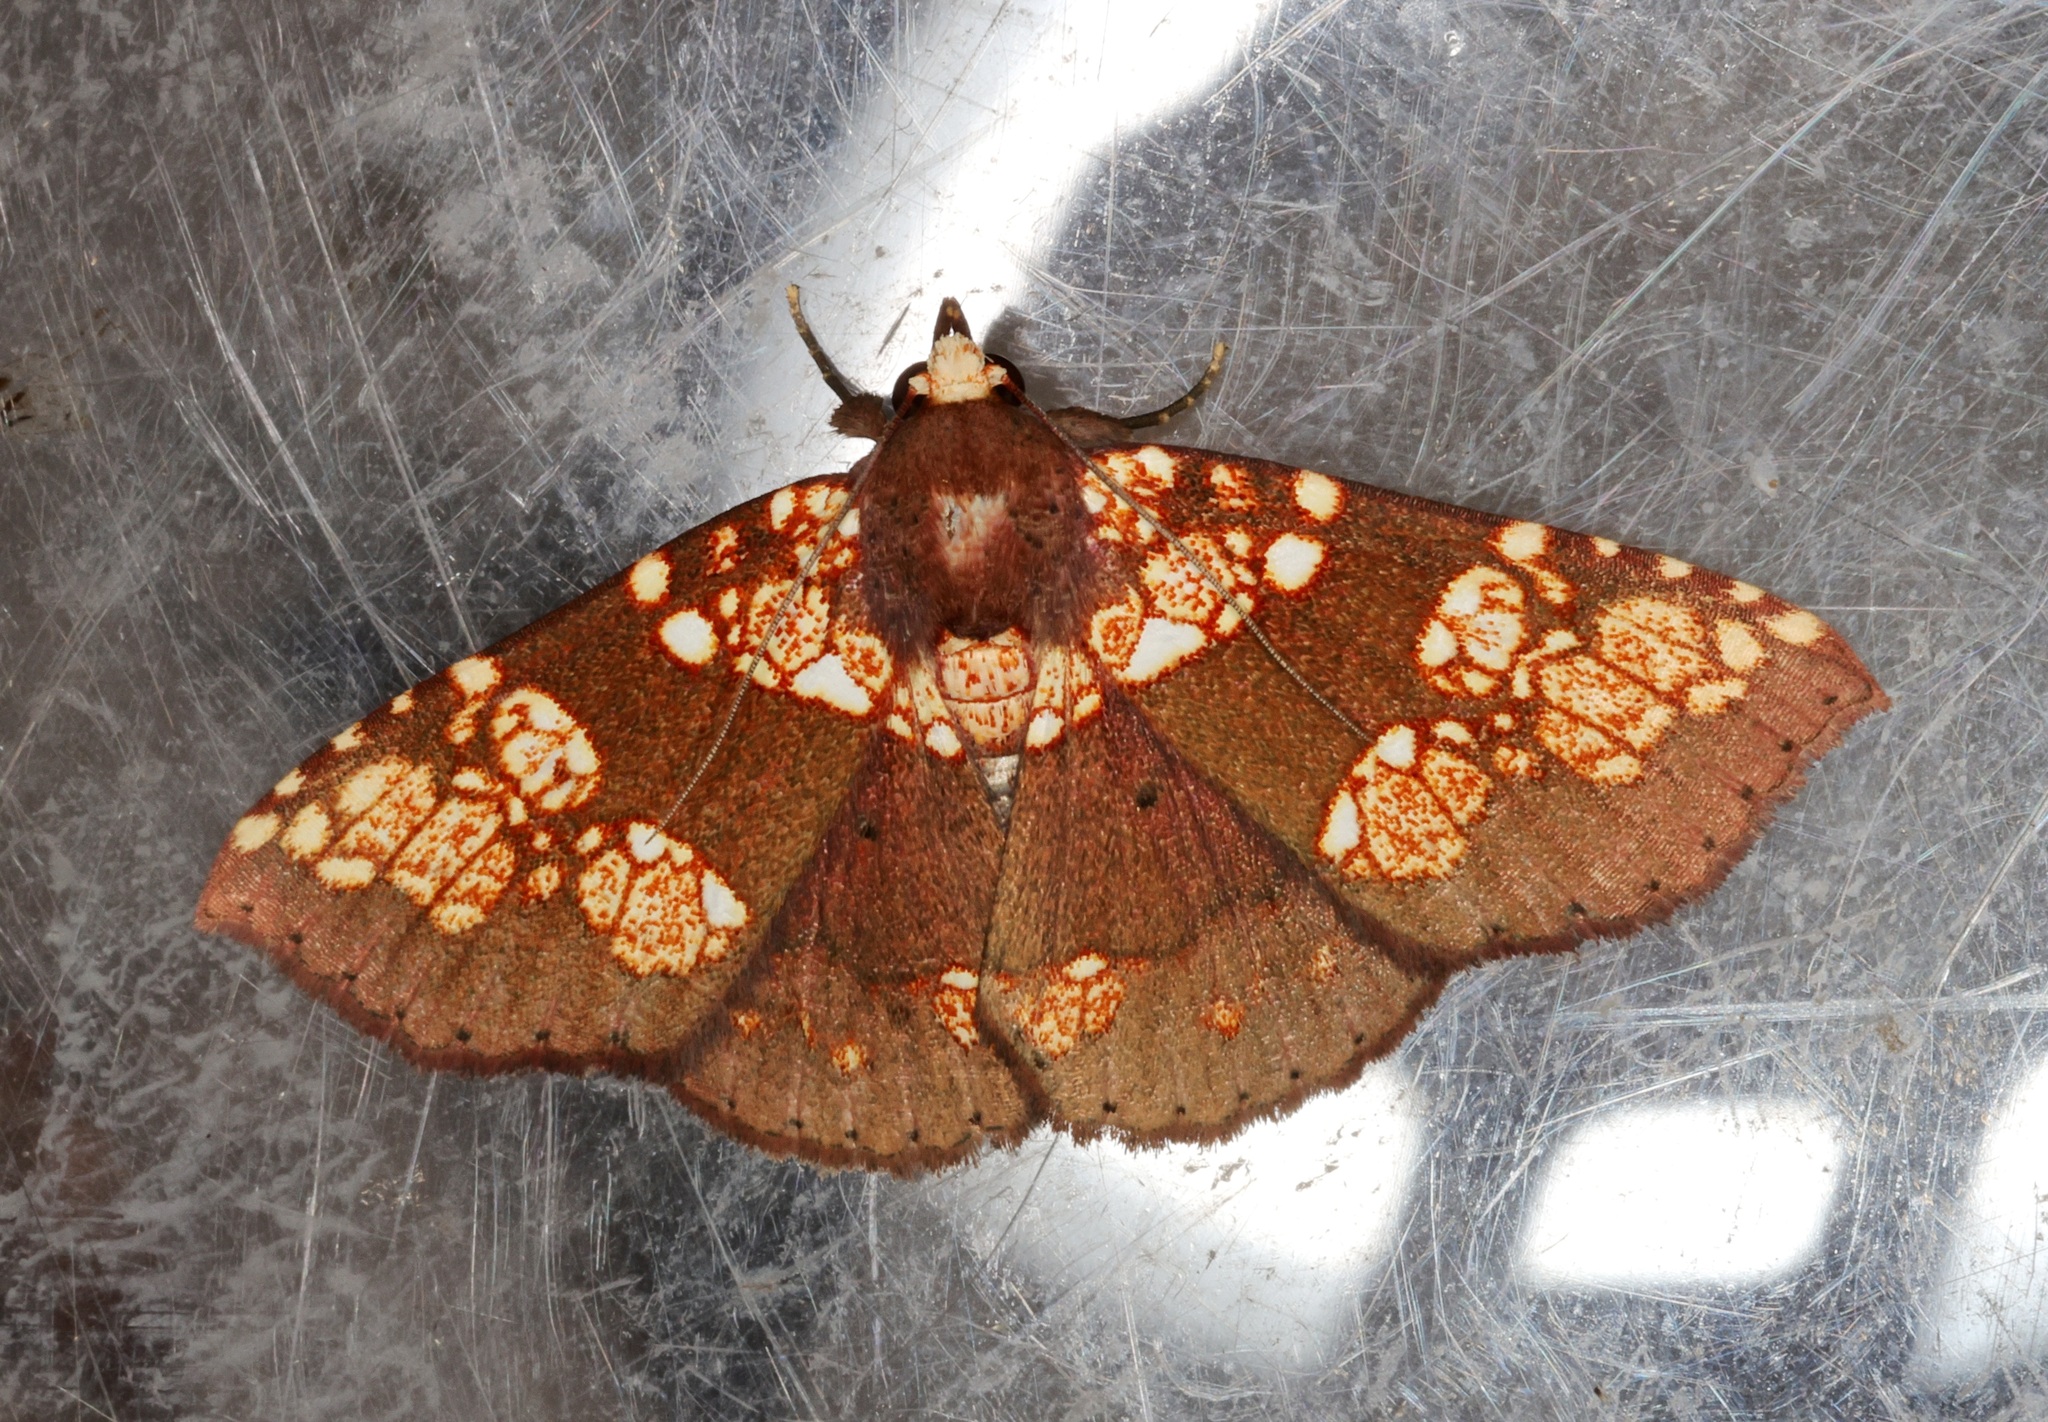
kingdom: Animalia
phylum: Arthropoda
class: Insecta
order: Lepidoptera
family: Erebidae
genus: Saroba
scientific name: Saroba pustulifera
